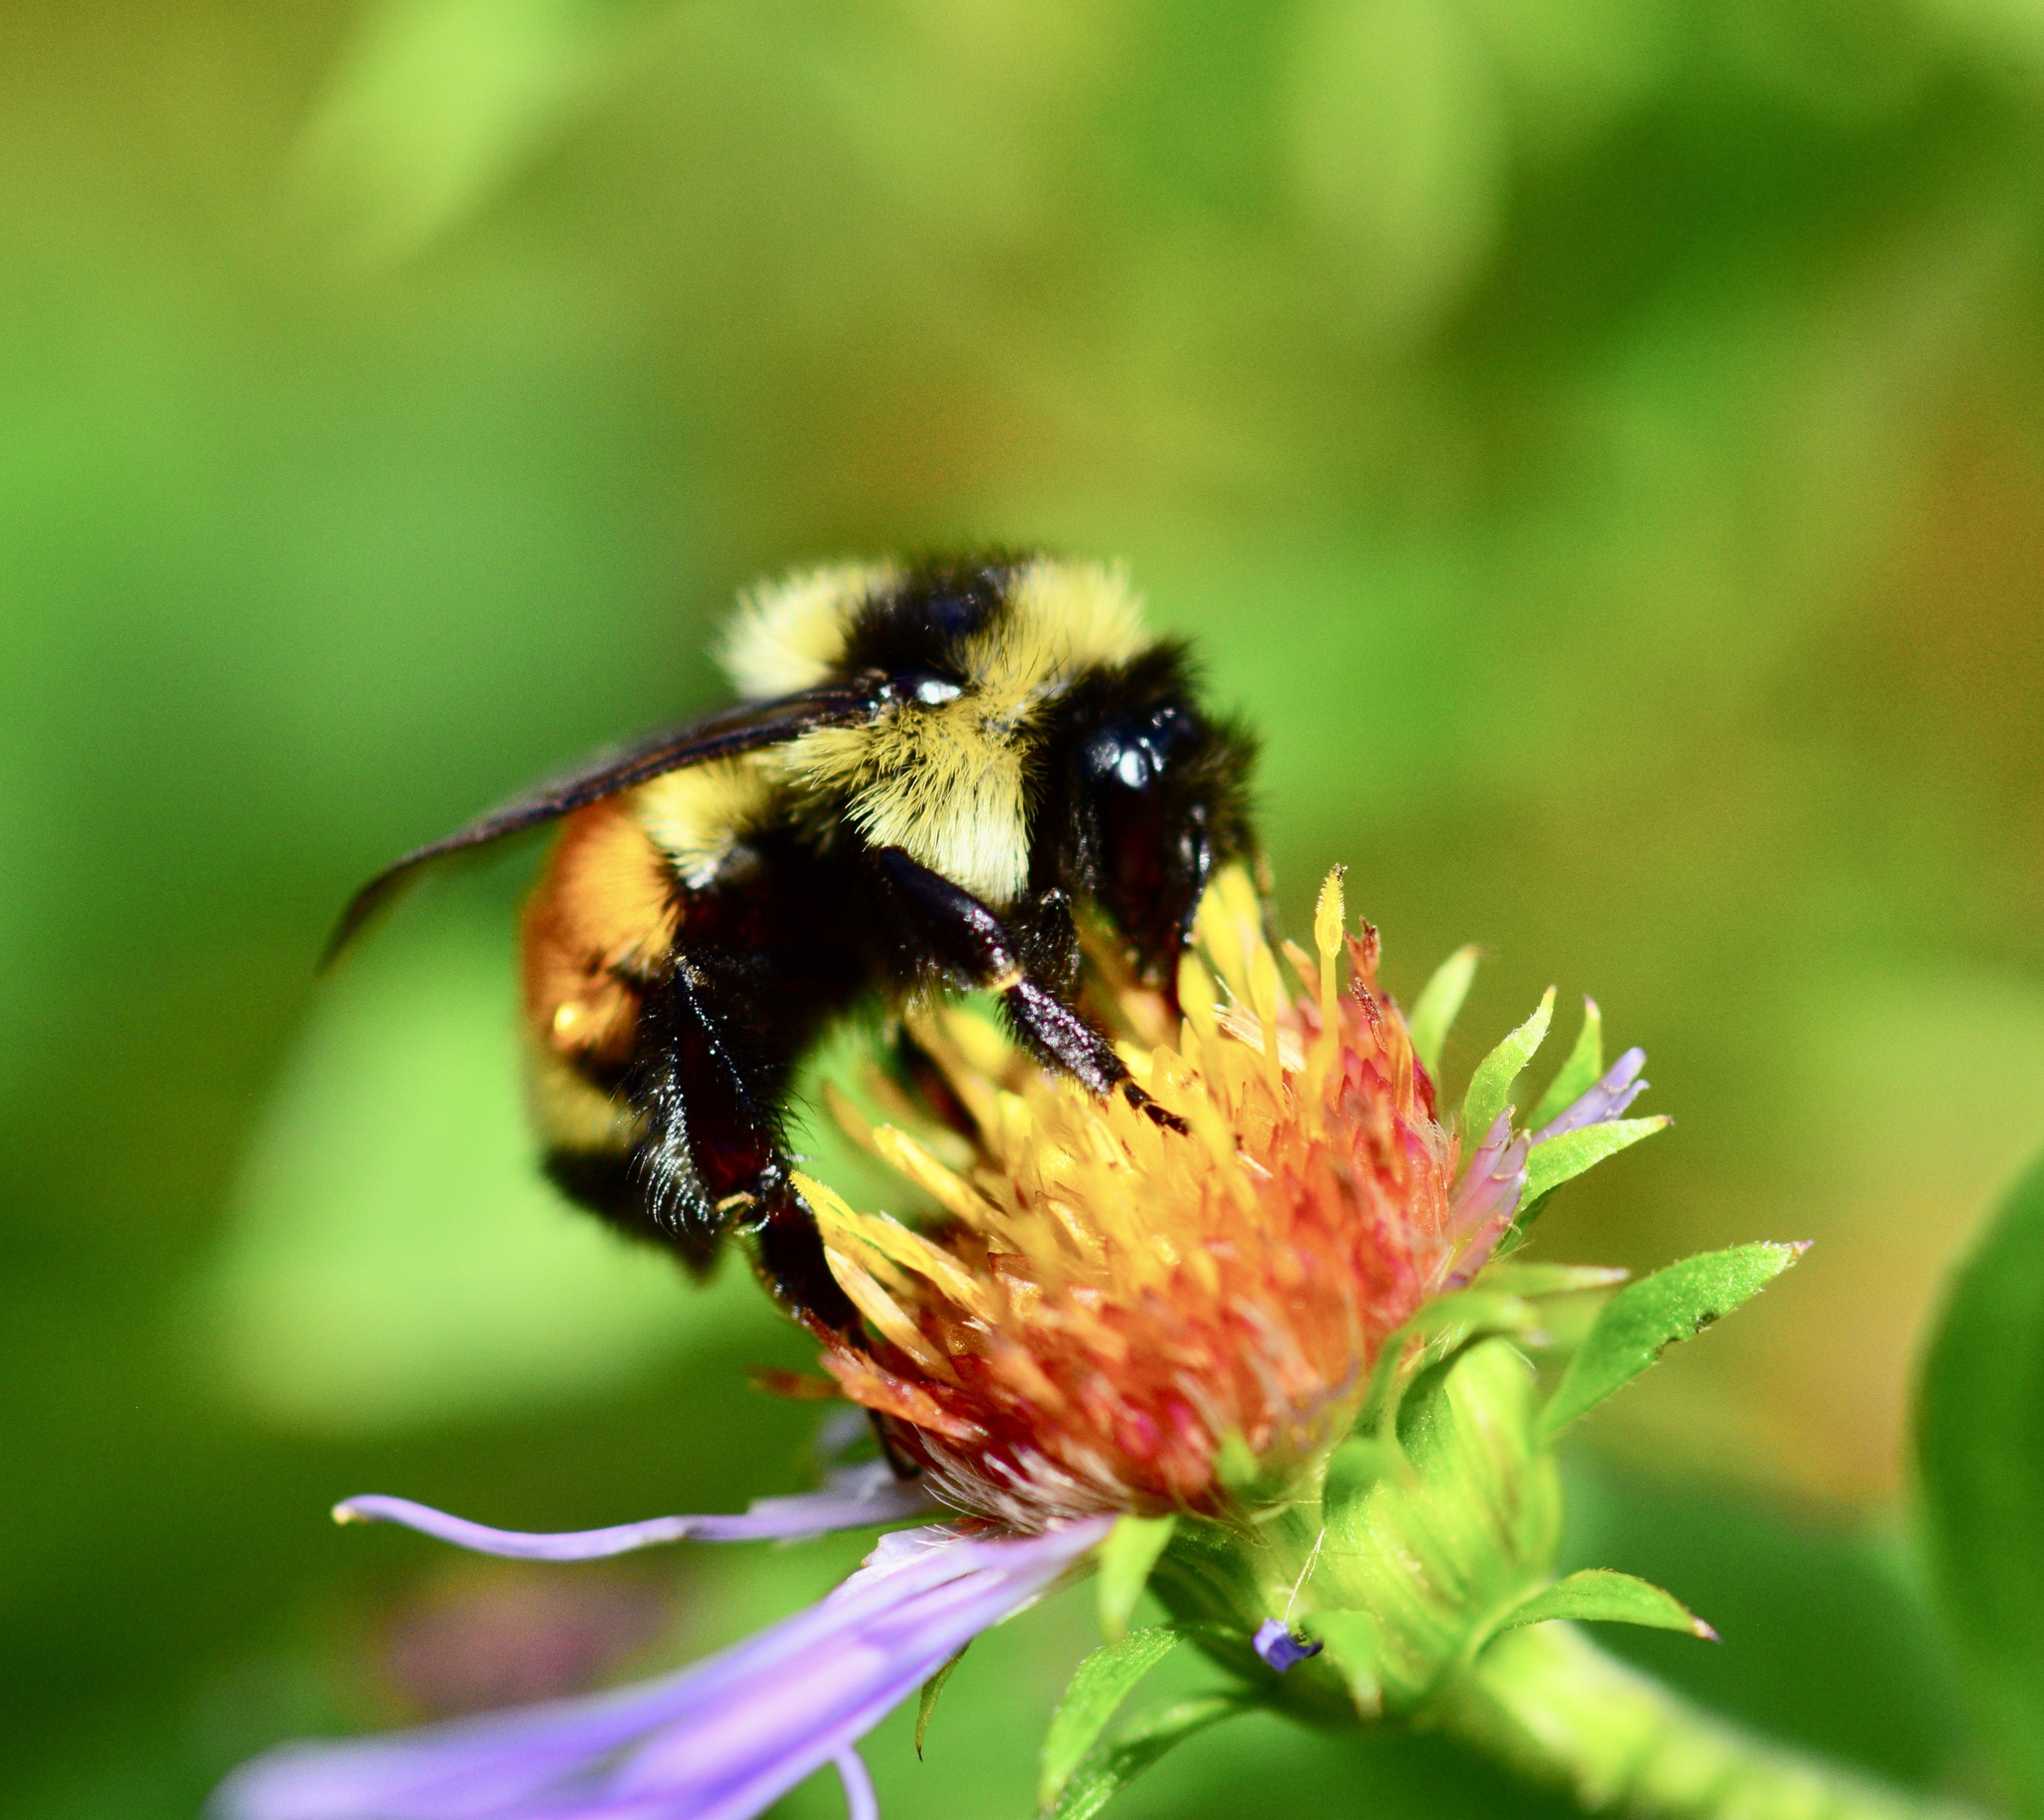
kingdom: Animalia
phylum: Arthropoda
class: Insecta
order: Hymenoptera
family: Apidae
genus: Bombus
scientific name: Bombus ternarius
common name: Tri-colored bumble bee
